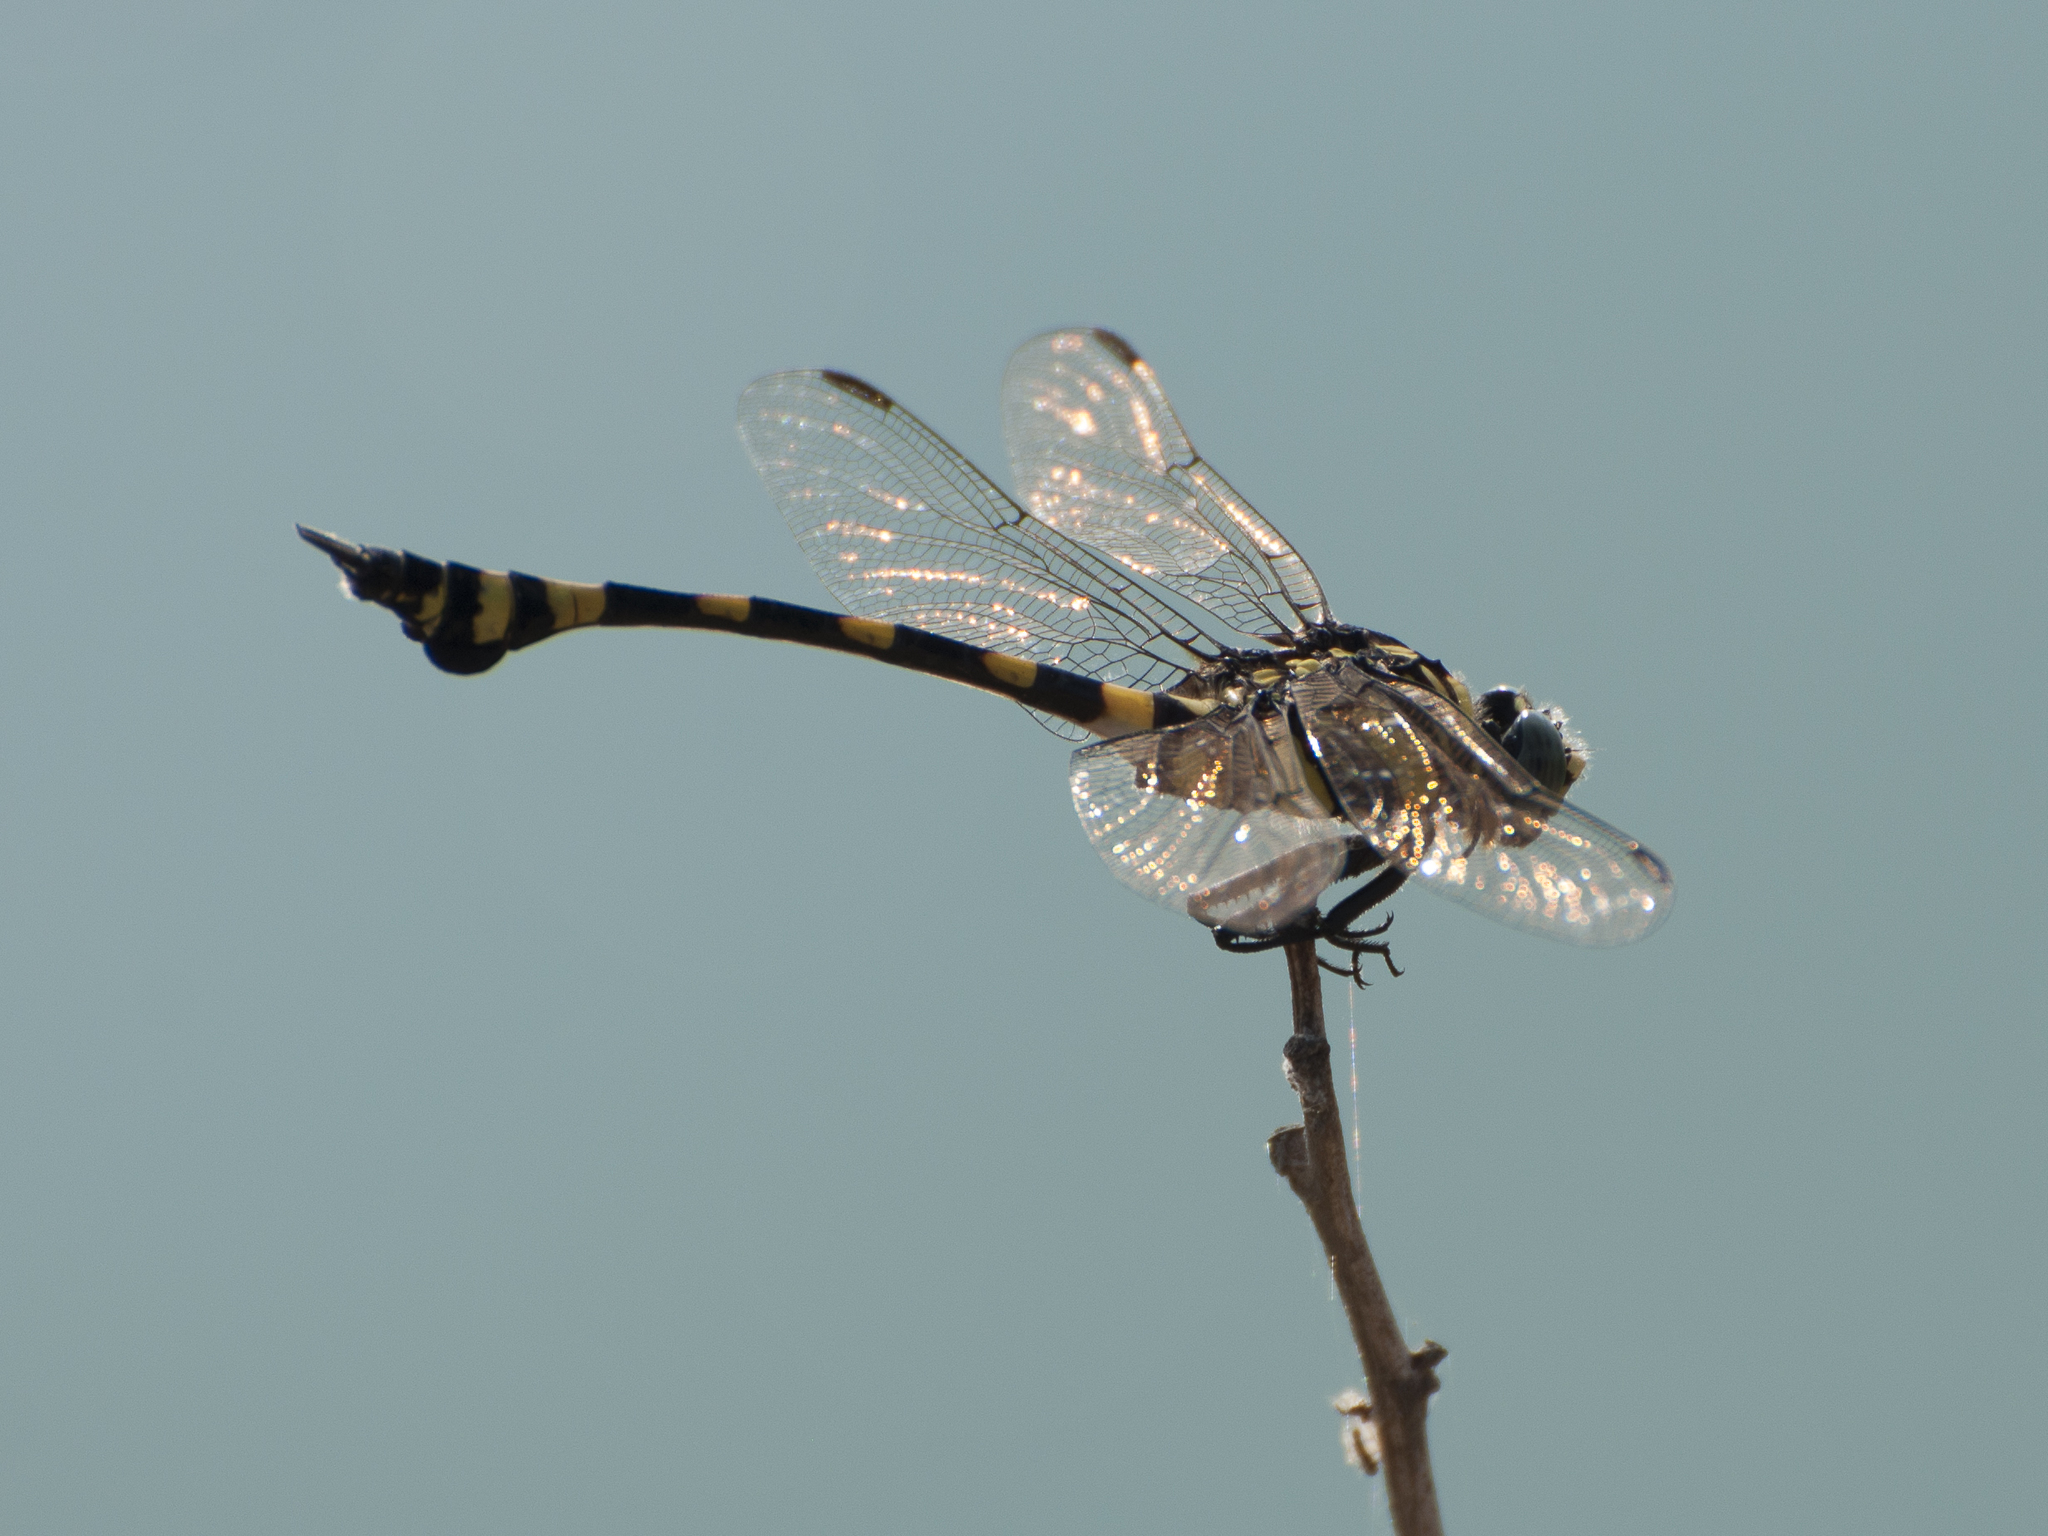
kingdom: Animalia
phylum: Arthropoda
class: Insecta
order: Odonata
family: Gomphidae
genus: Ictinogomphus
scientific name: Ictinogomphus rapax
